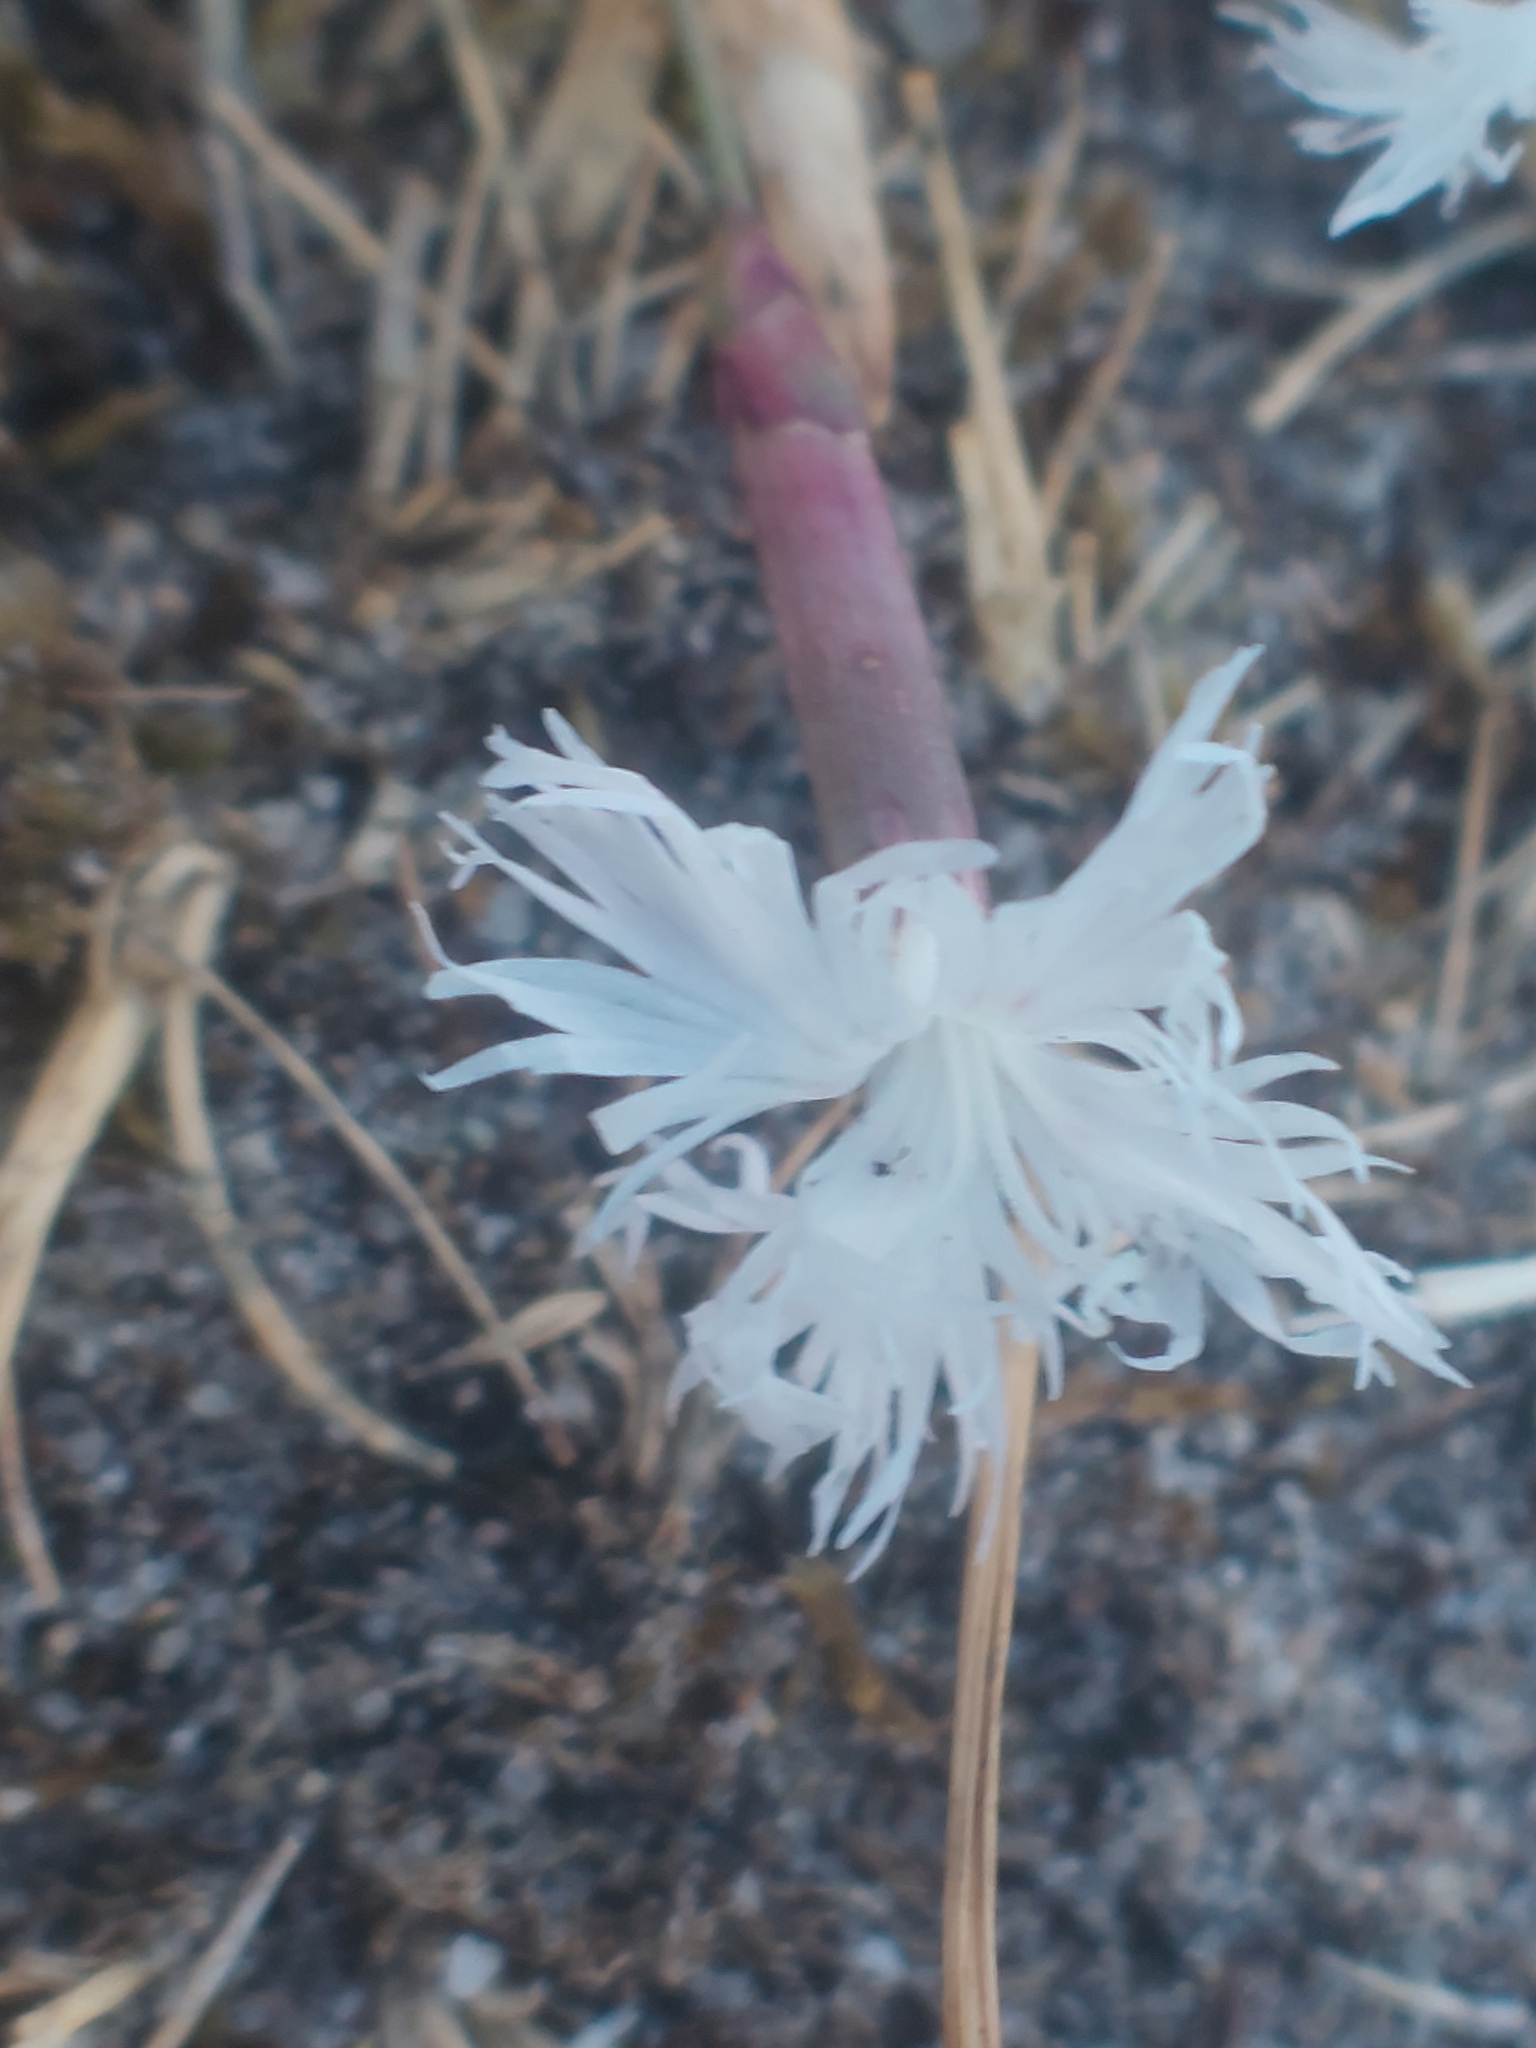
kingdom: Plantae
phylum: Tracheophyta
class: Magnoliopsida
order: Caryophyllales
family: Caryophyllaceae
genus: Dianthus
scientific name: Dianthus arenarius
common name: Stone pink
